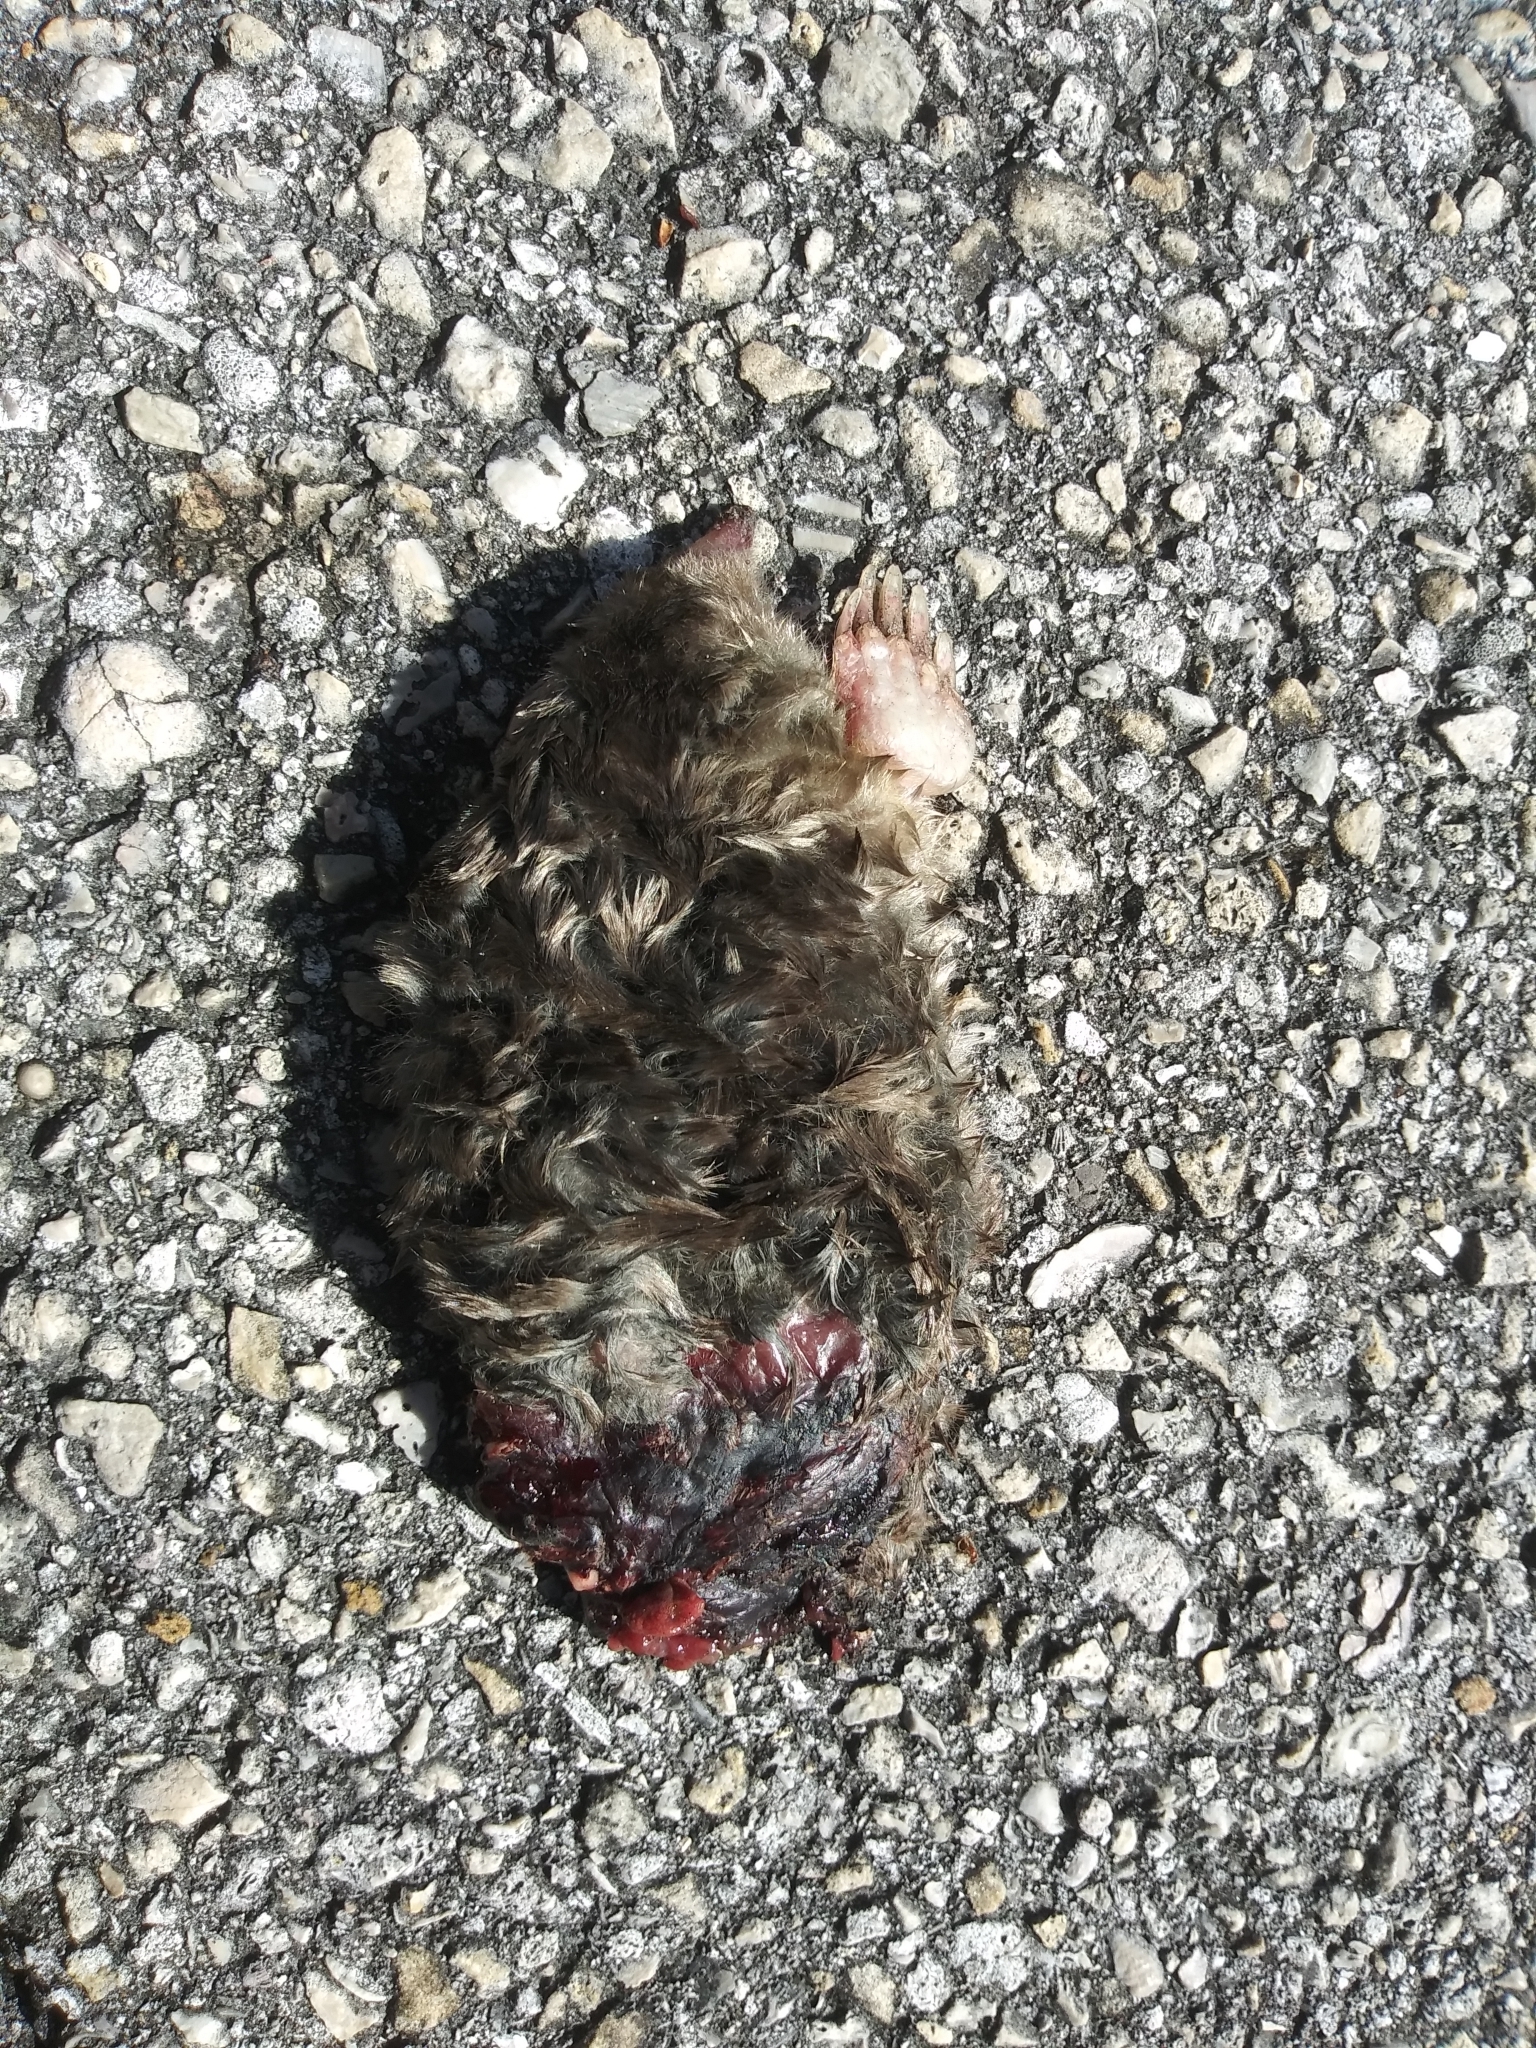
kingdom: Animalia
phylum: Chordata
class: Mammalia
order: Soricomorpha
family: Talpidae
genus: Scalopus
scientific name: Scalopus aquaticus
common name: Eastern mole
